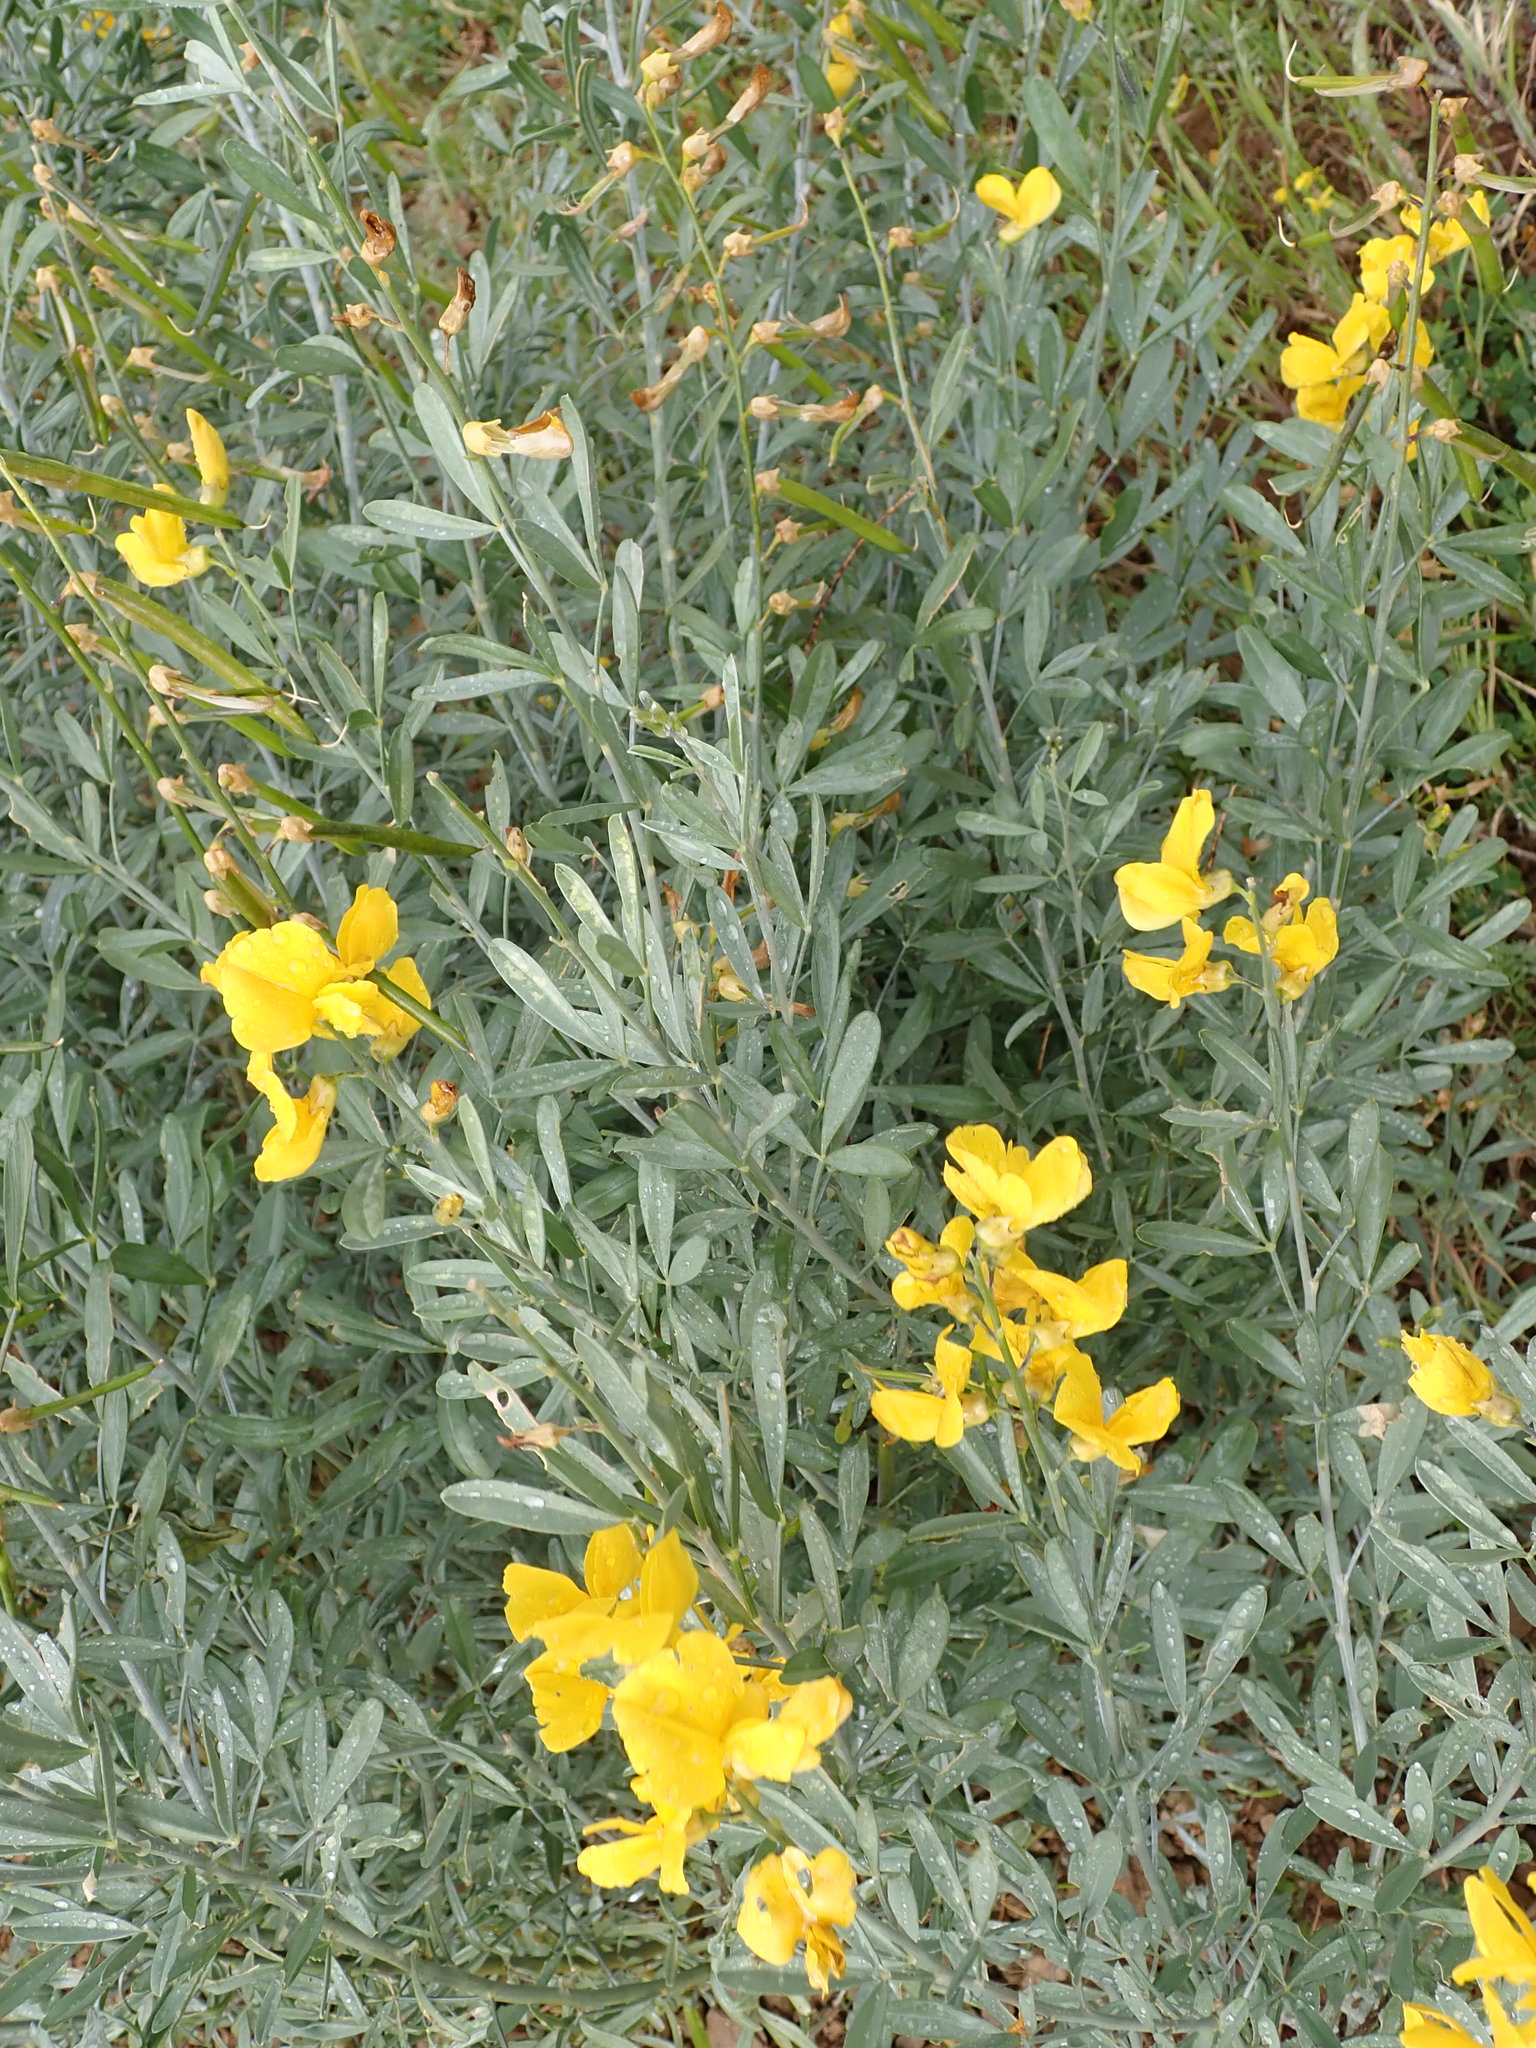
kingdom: Plantae
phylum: Tracheophyta
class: Magnoliopsida
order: Fabales
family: Fabaceae
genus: Calobota
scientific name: Calobota cytisoides
